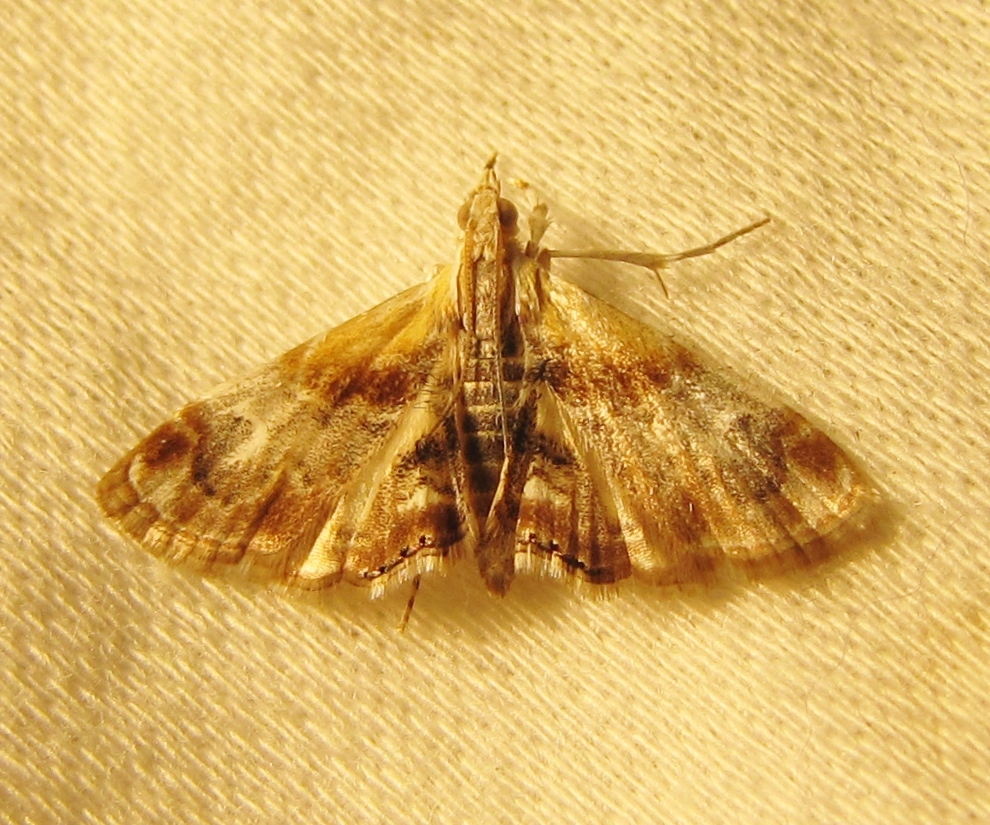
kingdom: Animalia
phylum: Arthropoda
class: Insecta
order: Lepidoptera
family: Crambidae
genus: Dicymolomia
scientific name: Dicymolomia julianalis
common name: Julia's dicymolomia moth
